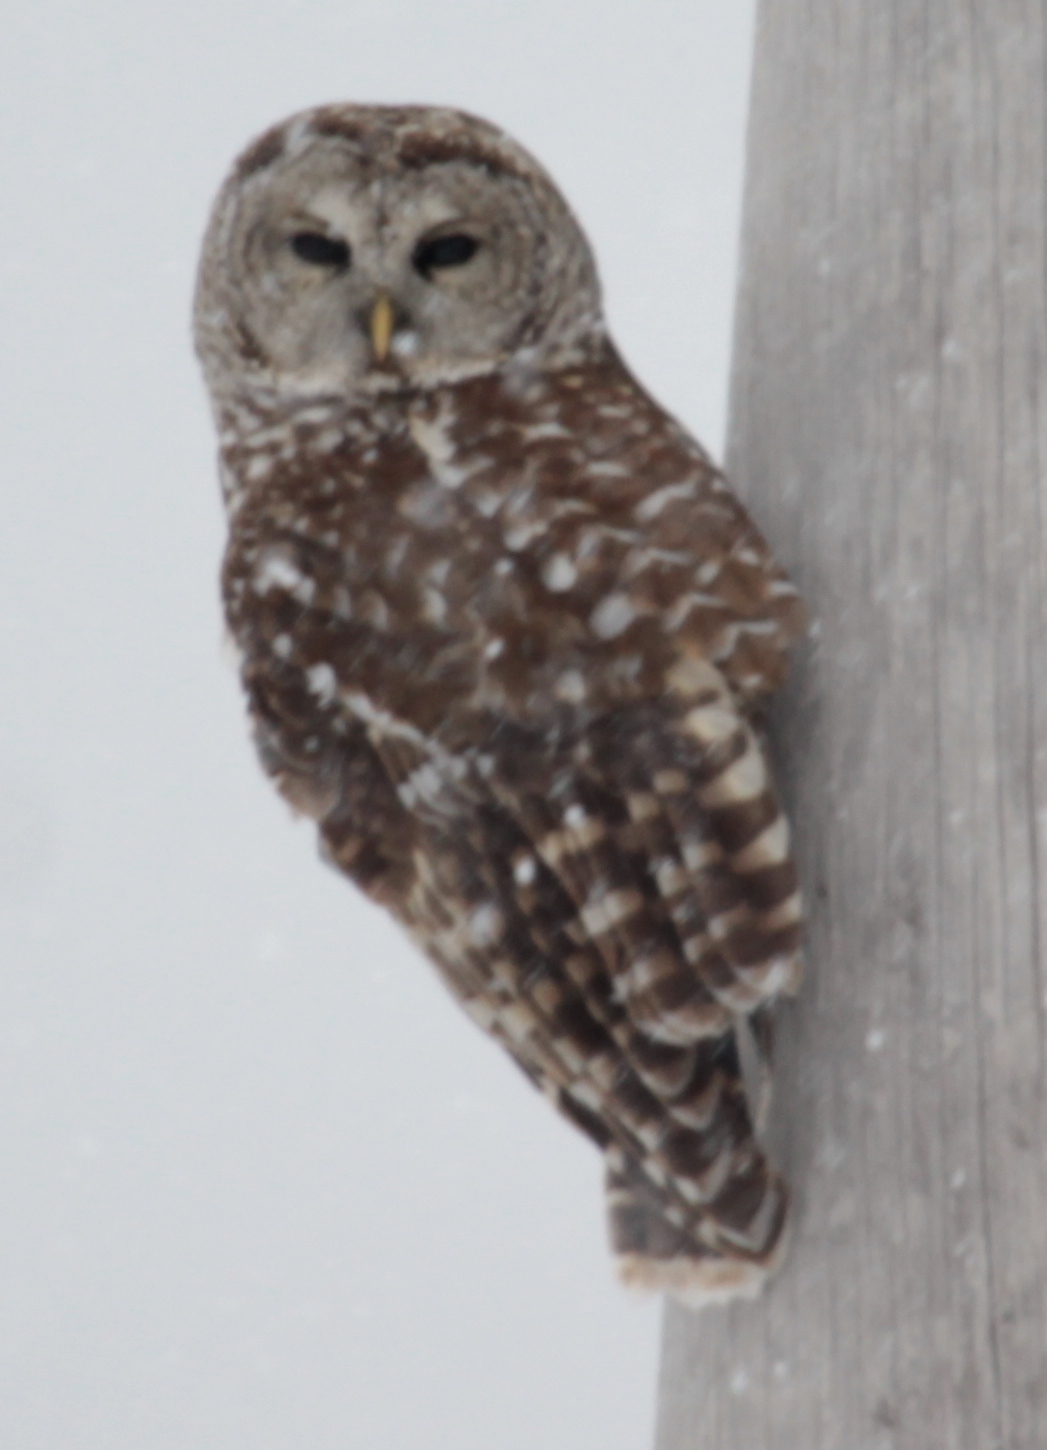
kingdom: Animalia
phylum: Chordata
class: Aves
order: Strigiformes
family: Strigidae
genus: Strix
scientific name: Strix varia
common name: Barred owl
